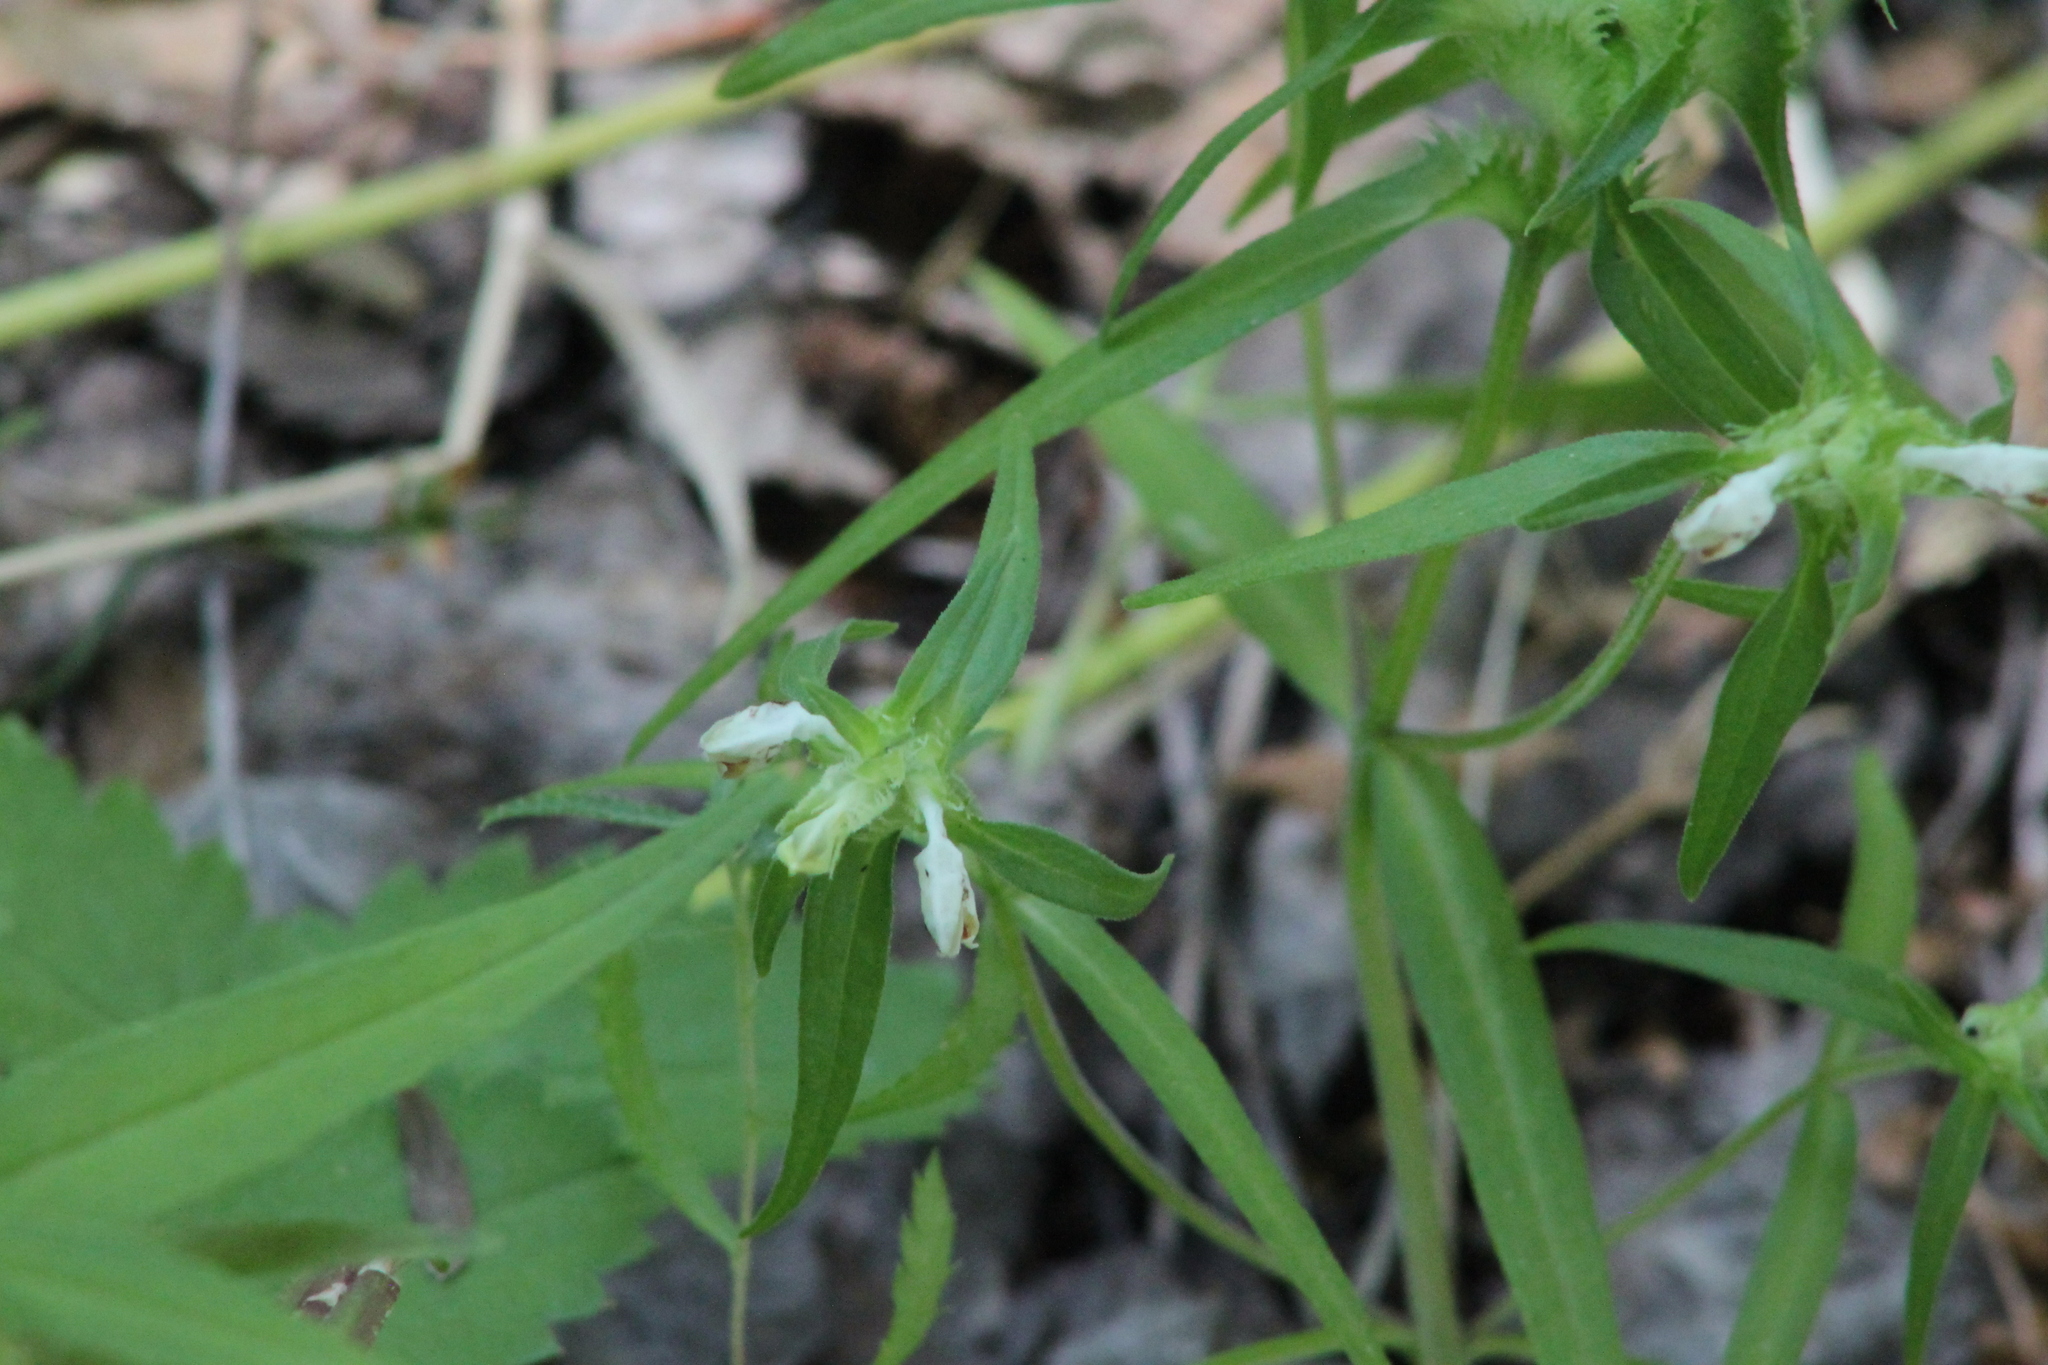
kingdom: Plantae
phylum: Tracheophyta
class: Magnoliopsida
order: Lamiales
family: Orobanchaceae
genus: Melampyrum
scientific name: Melampyrum cristatum
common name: Crested cow-wheat
